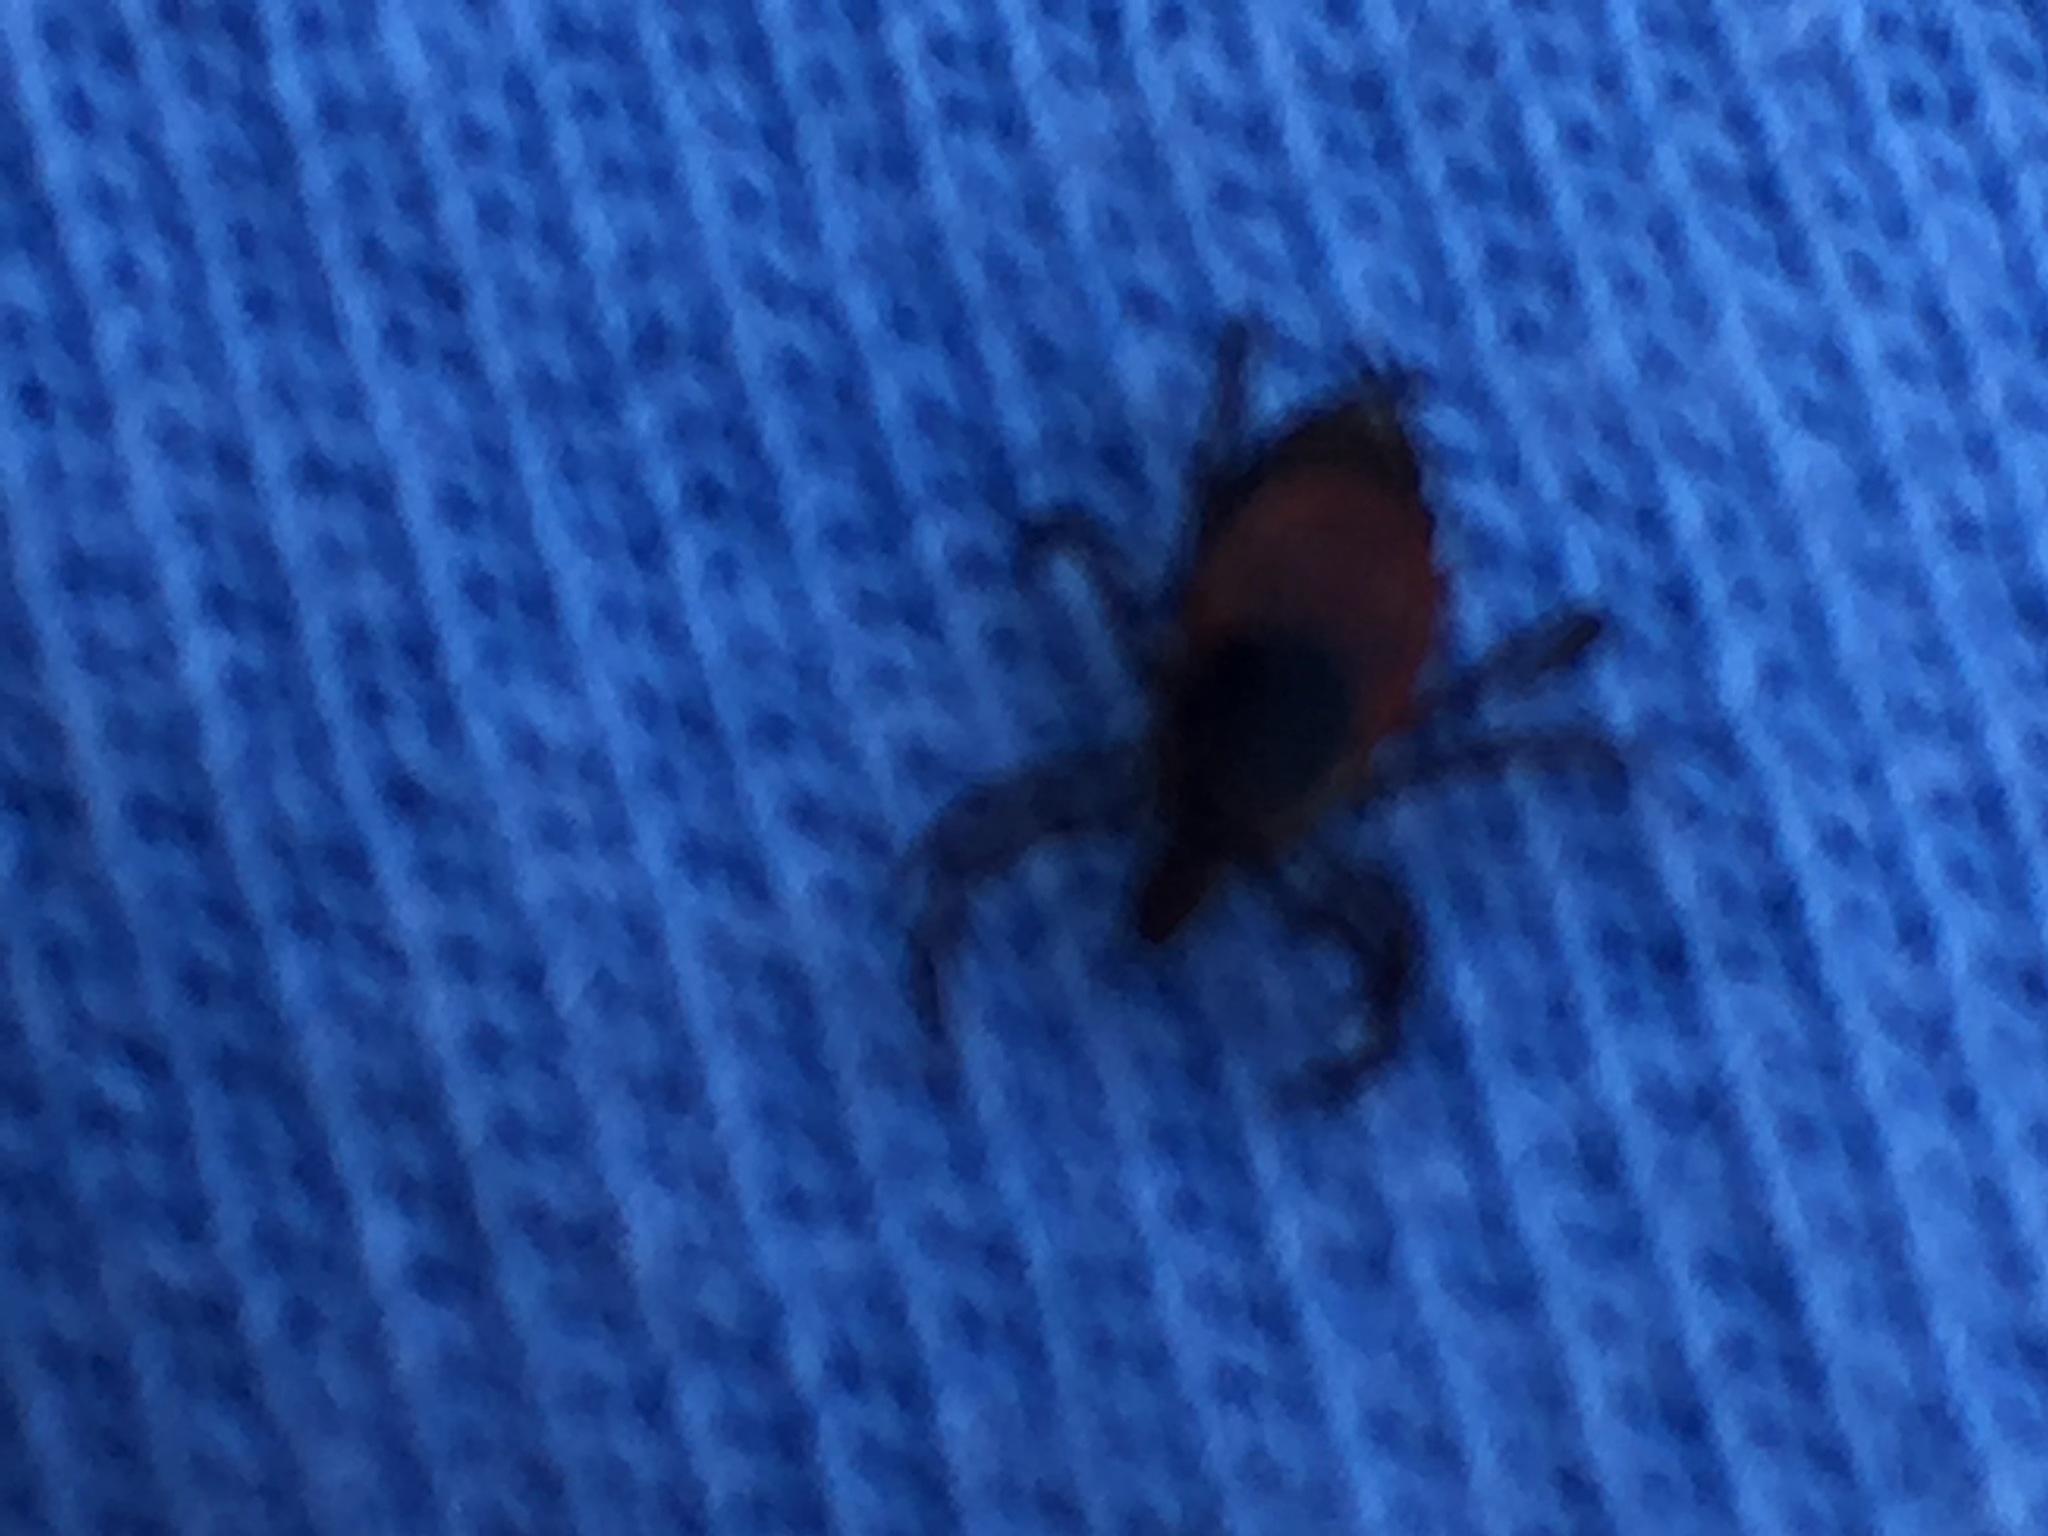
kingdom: Animalia
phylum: Arthropoda
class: Arachnida
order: Ixodida
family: Ixodidae
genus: Ixodes
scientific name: Ixodes scapularis
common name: Black legged tick
